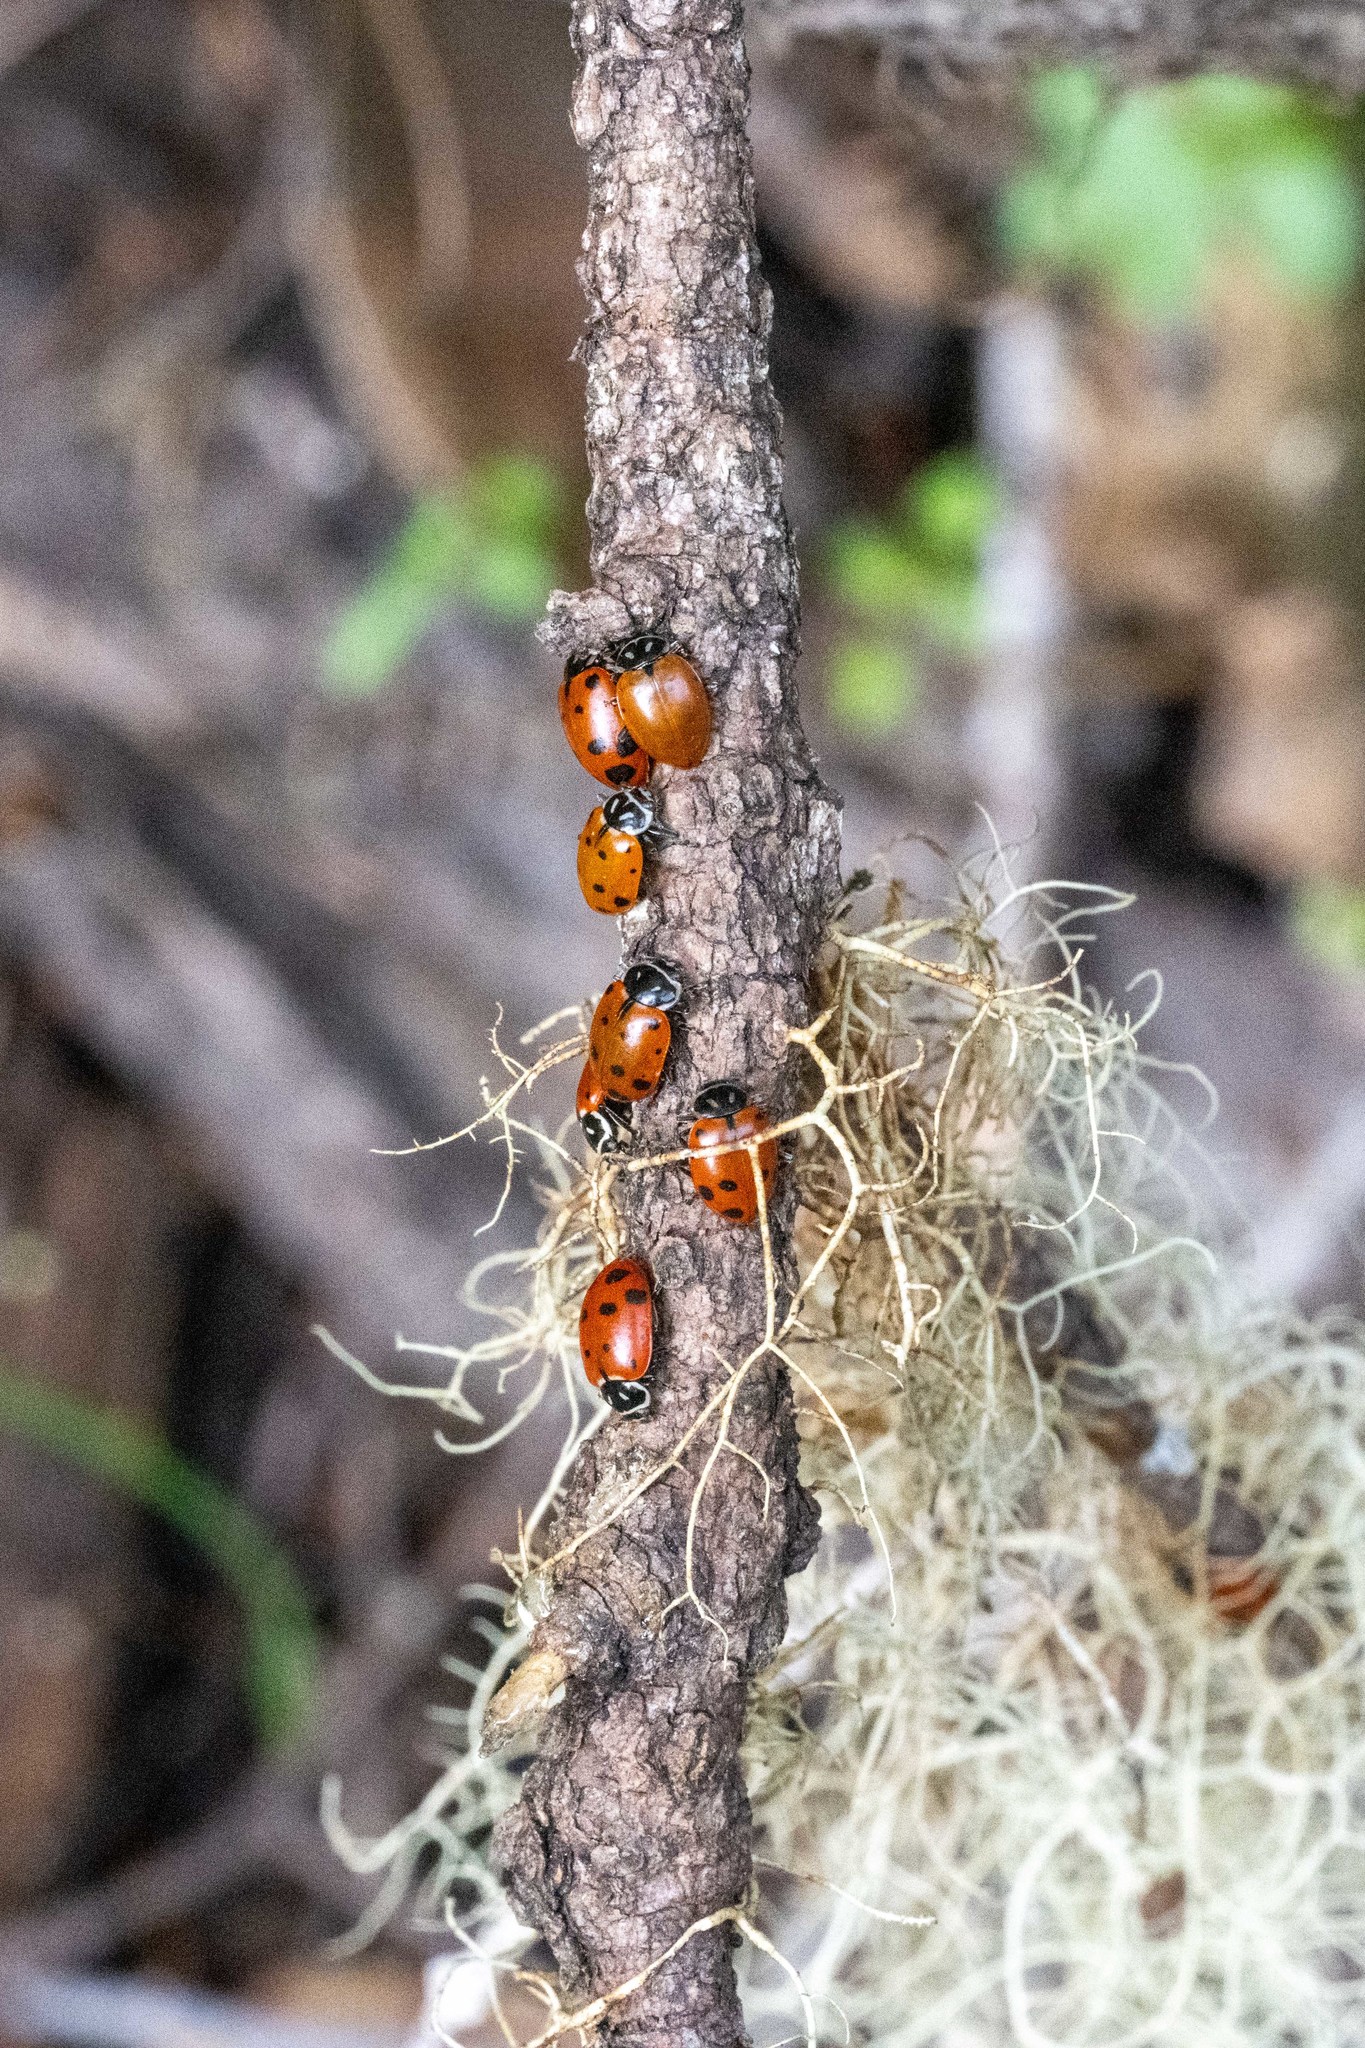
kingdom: Animalia
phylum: Arthropoda
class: Insecta
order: Coleoptera
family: Coccinellidae
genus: Hippodamia
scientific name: Hippodamia convergens
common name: Convergent lady beetle
